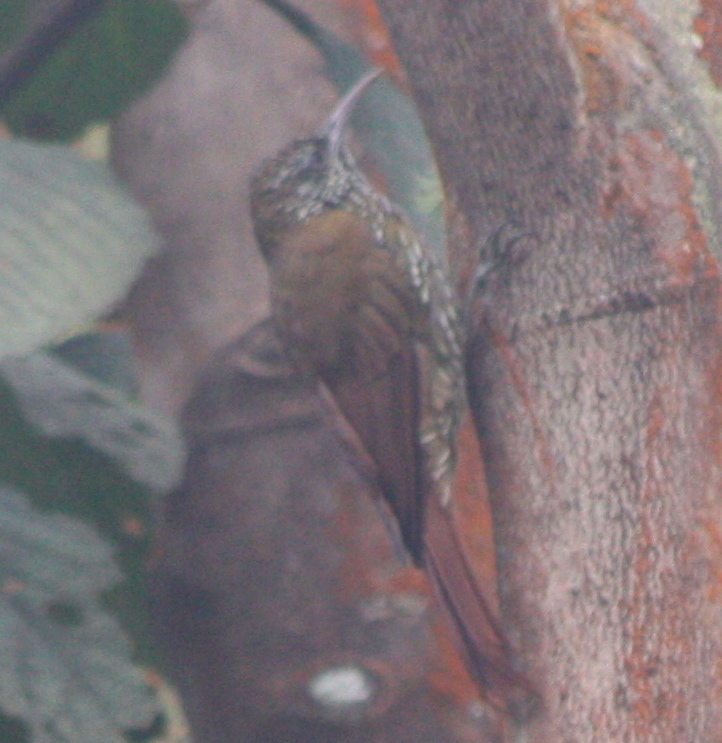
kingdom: Animalia
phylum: Chordata
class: Aves
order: Passeriformes
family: Furnariidae
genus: Lepidocolaptes
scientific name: Lepidocolaptes lacrymiger
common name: Montane woodcreeper
